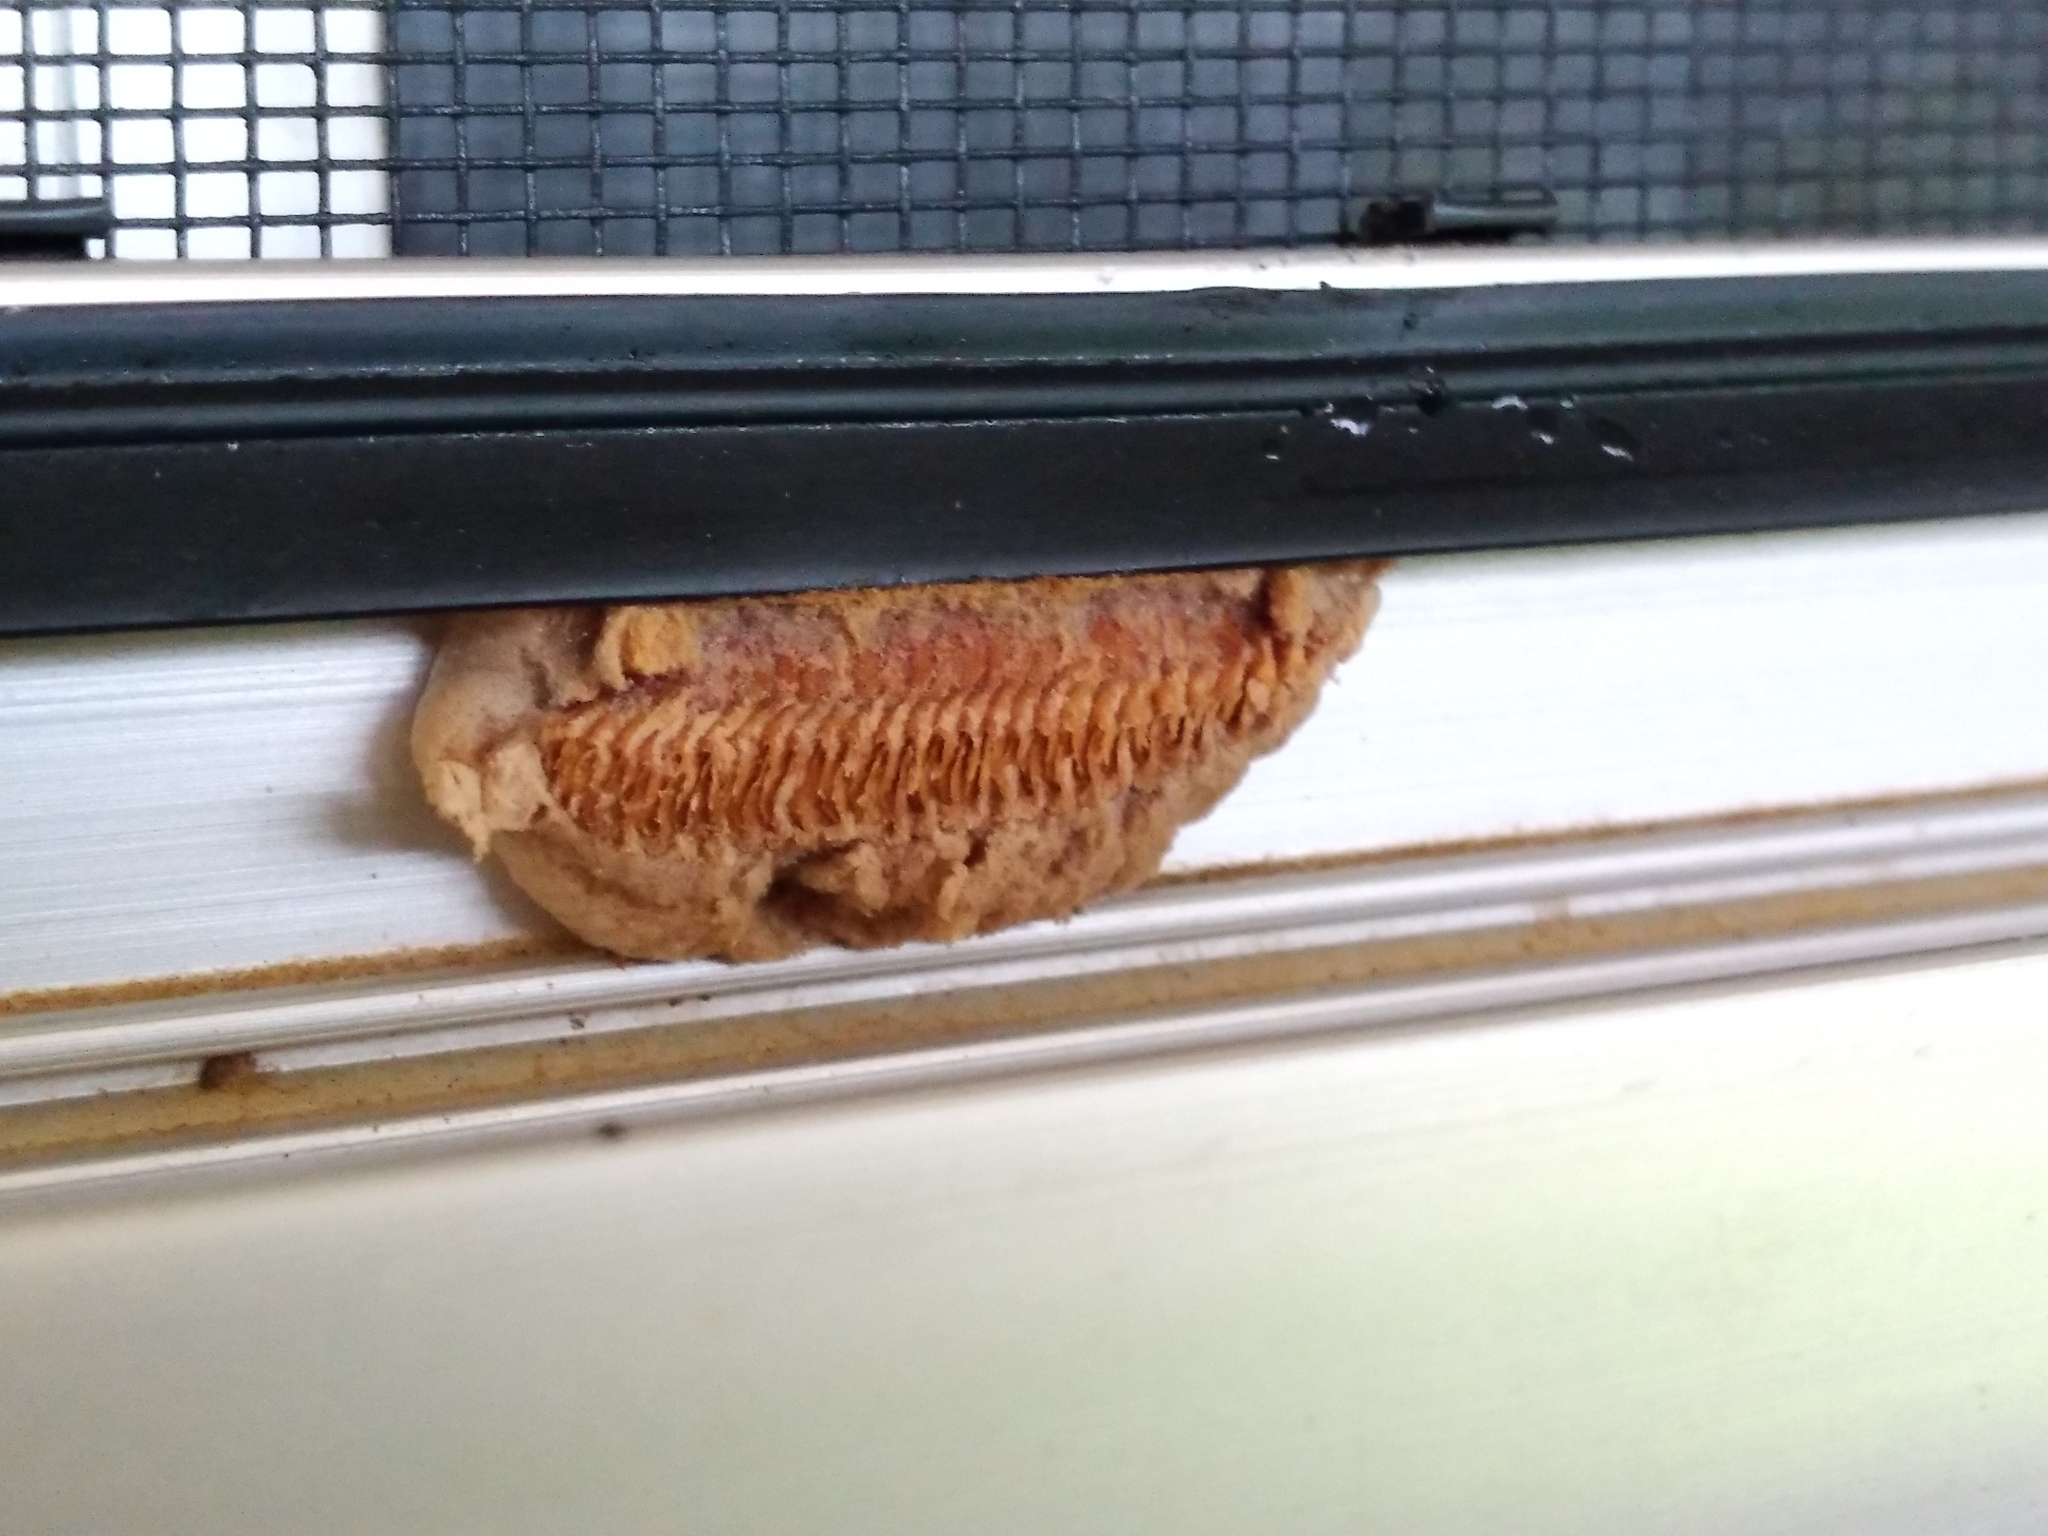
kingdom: Animalia
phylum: Arthropoda
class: Insecta
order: Mantodea
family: Miomantidae
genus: Miomantis
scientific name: Miomantis caffra
